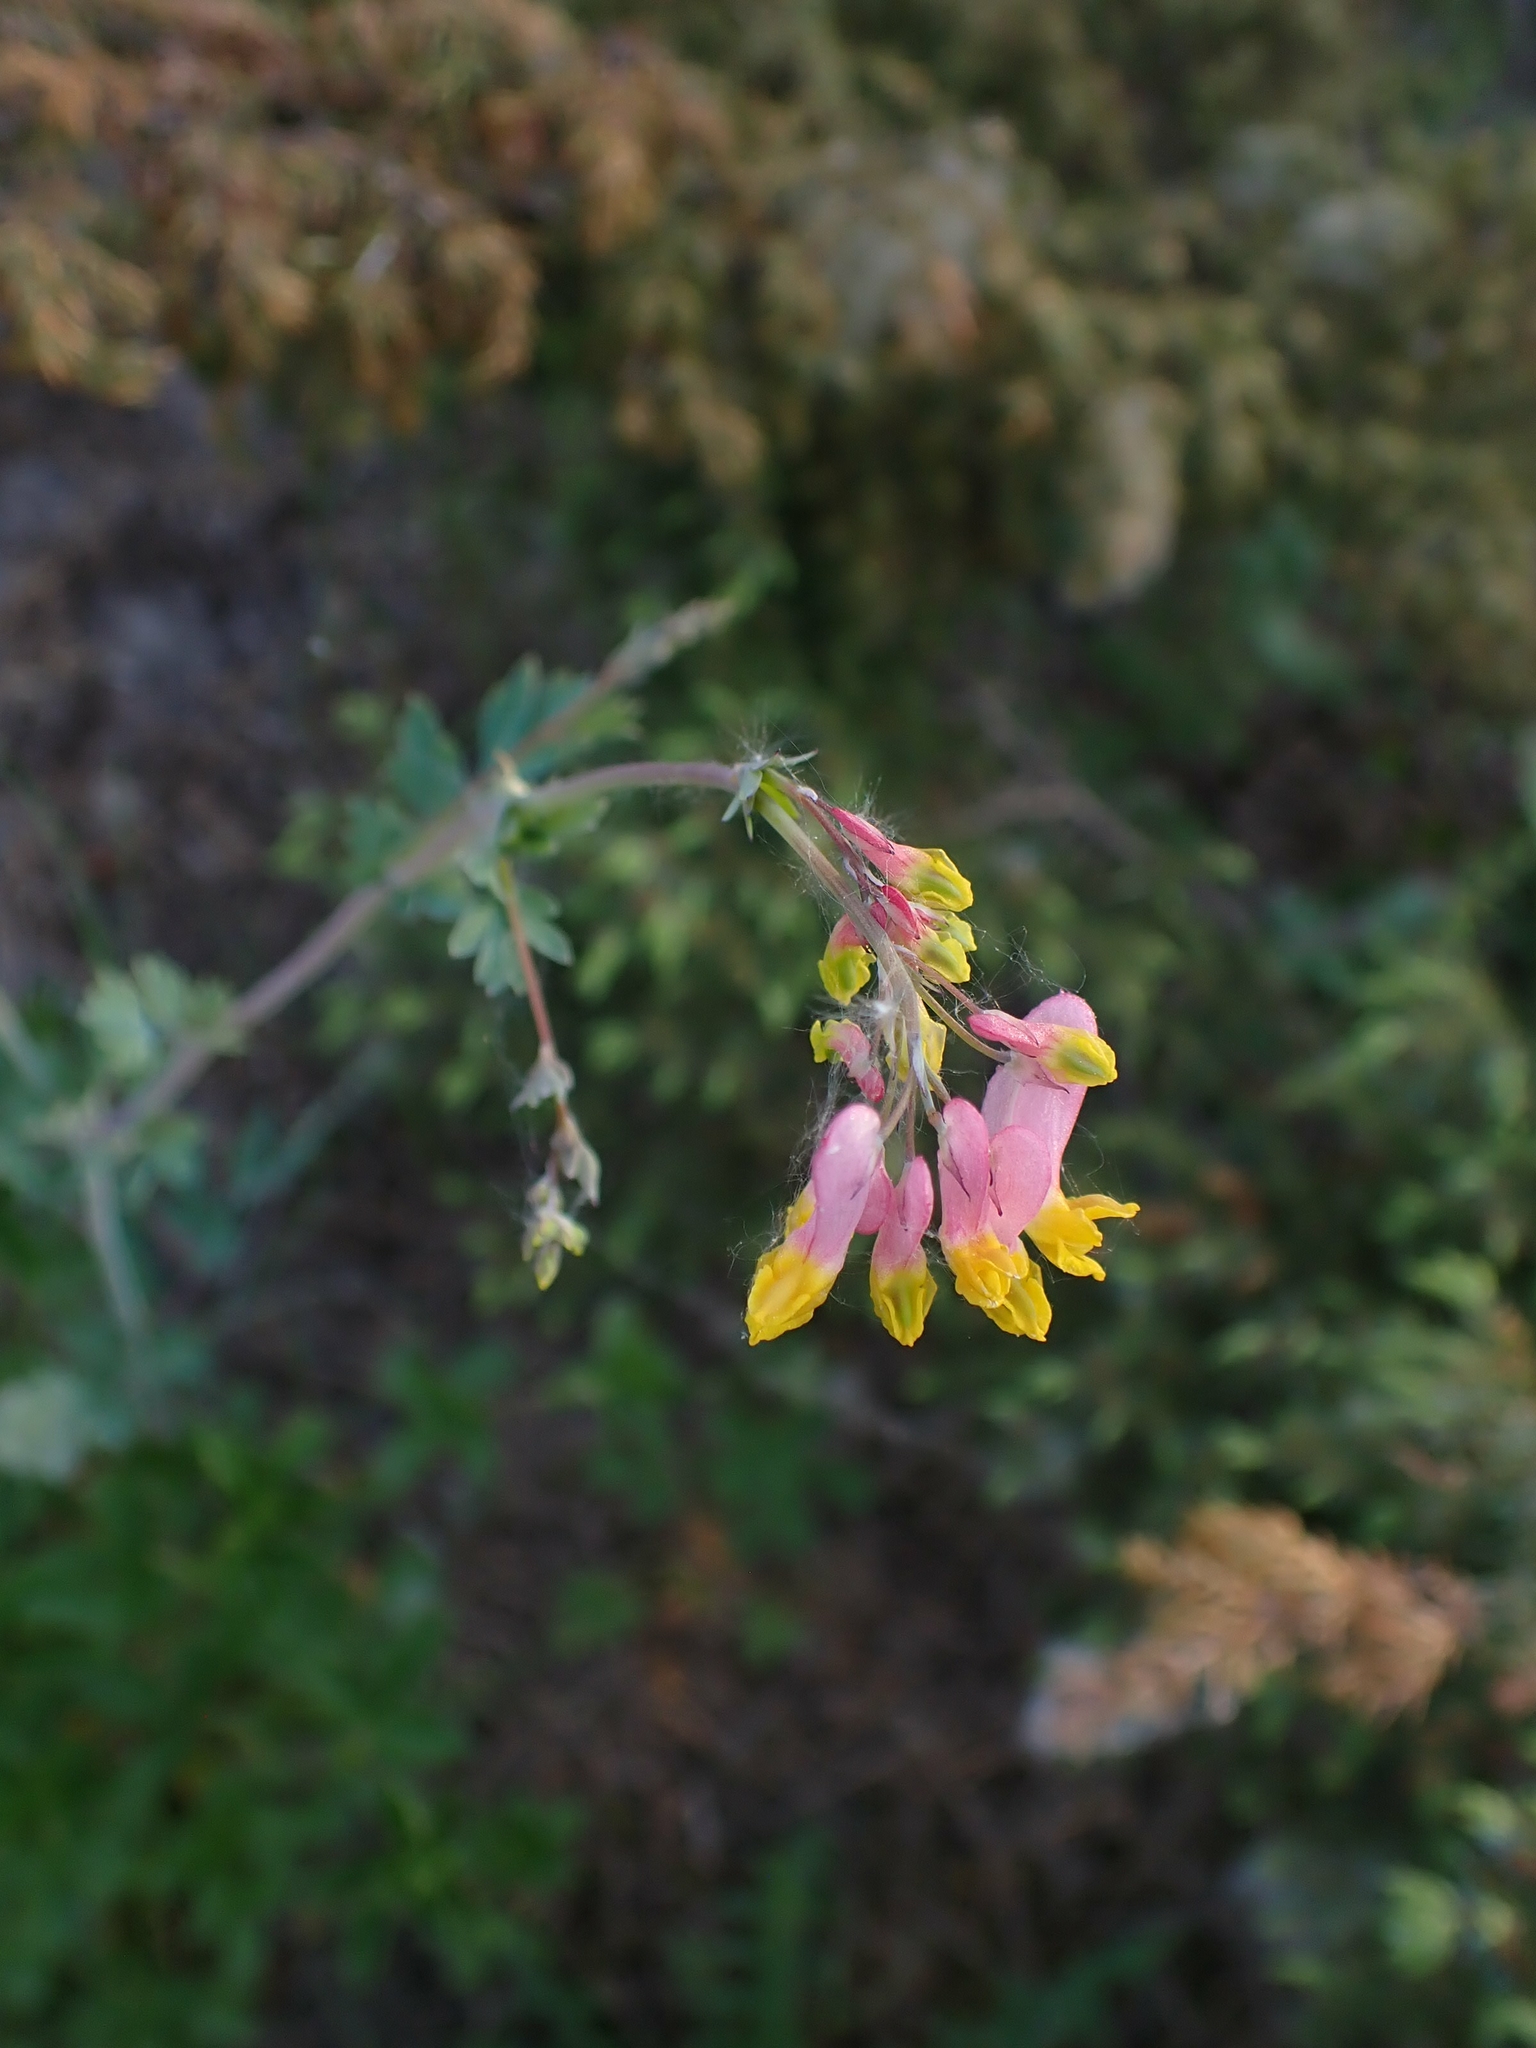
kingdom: Plantae
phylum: Tracheophyta
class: Magnoliopsida
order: Ranunculales
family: Papaveraceae
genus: Capnoides
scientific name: Capnoides sempervirens
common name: Rock harlequin
